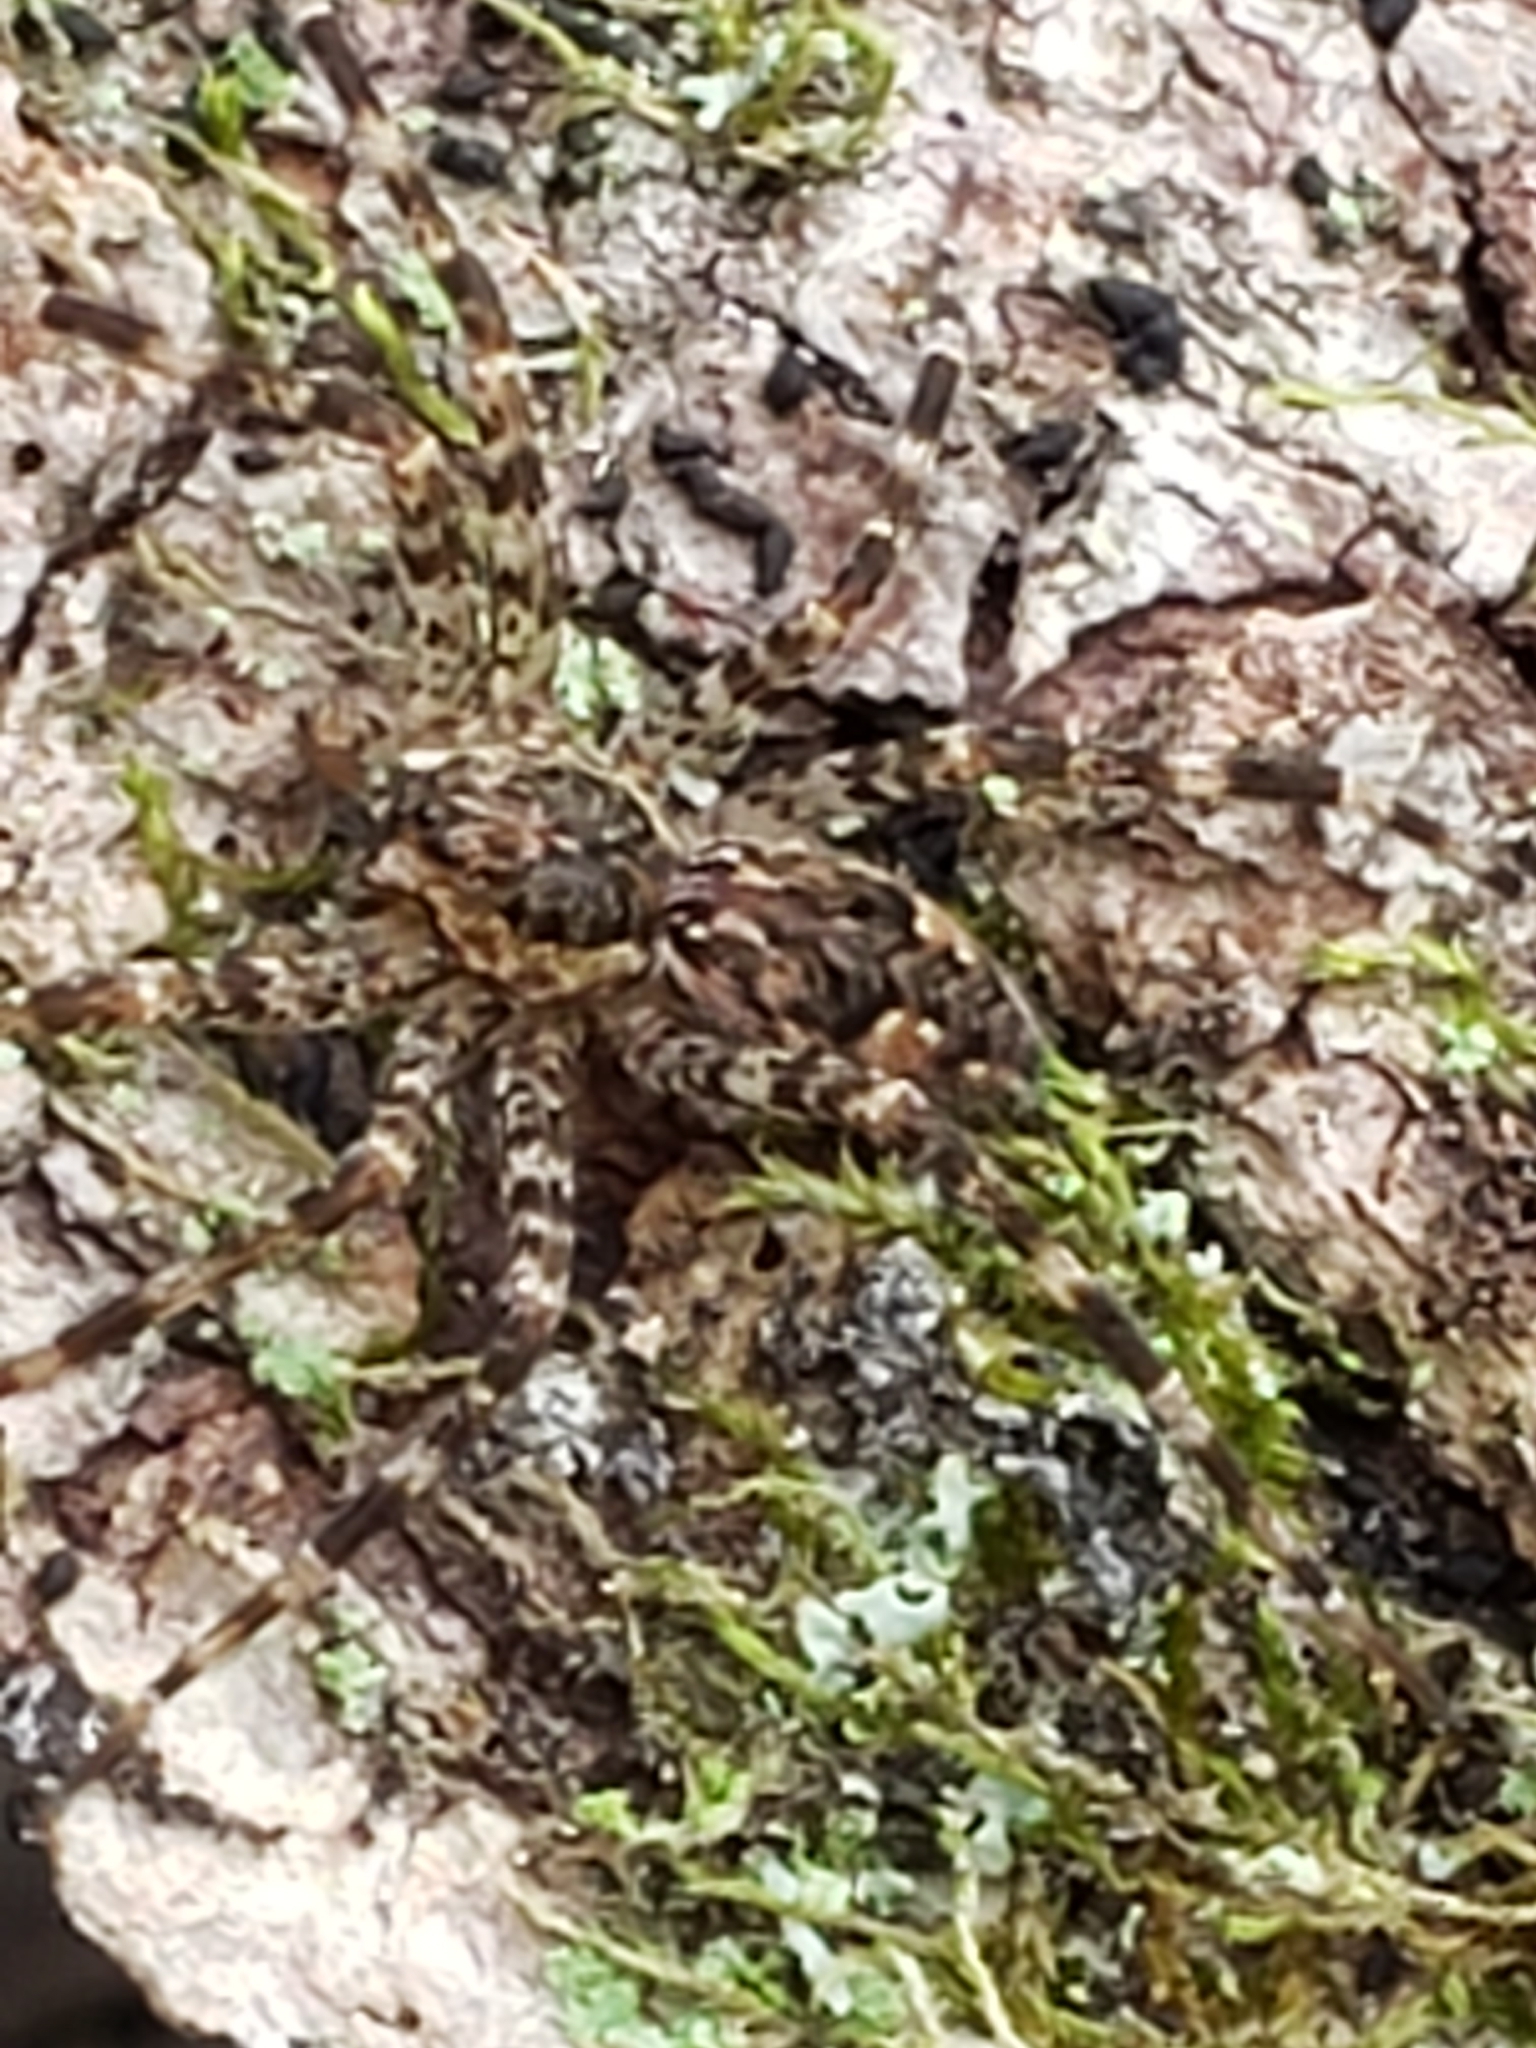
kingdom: Animalia
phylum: Arthropoda
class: Arachnida
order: Araneae
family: Pisauridae
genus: Dolomedes
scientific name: Dolomedes tenebrosus
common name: Dark fishing spider
